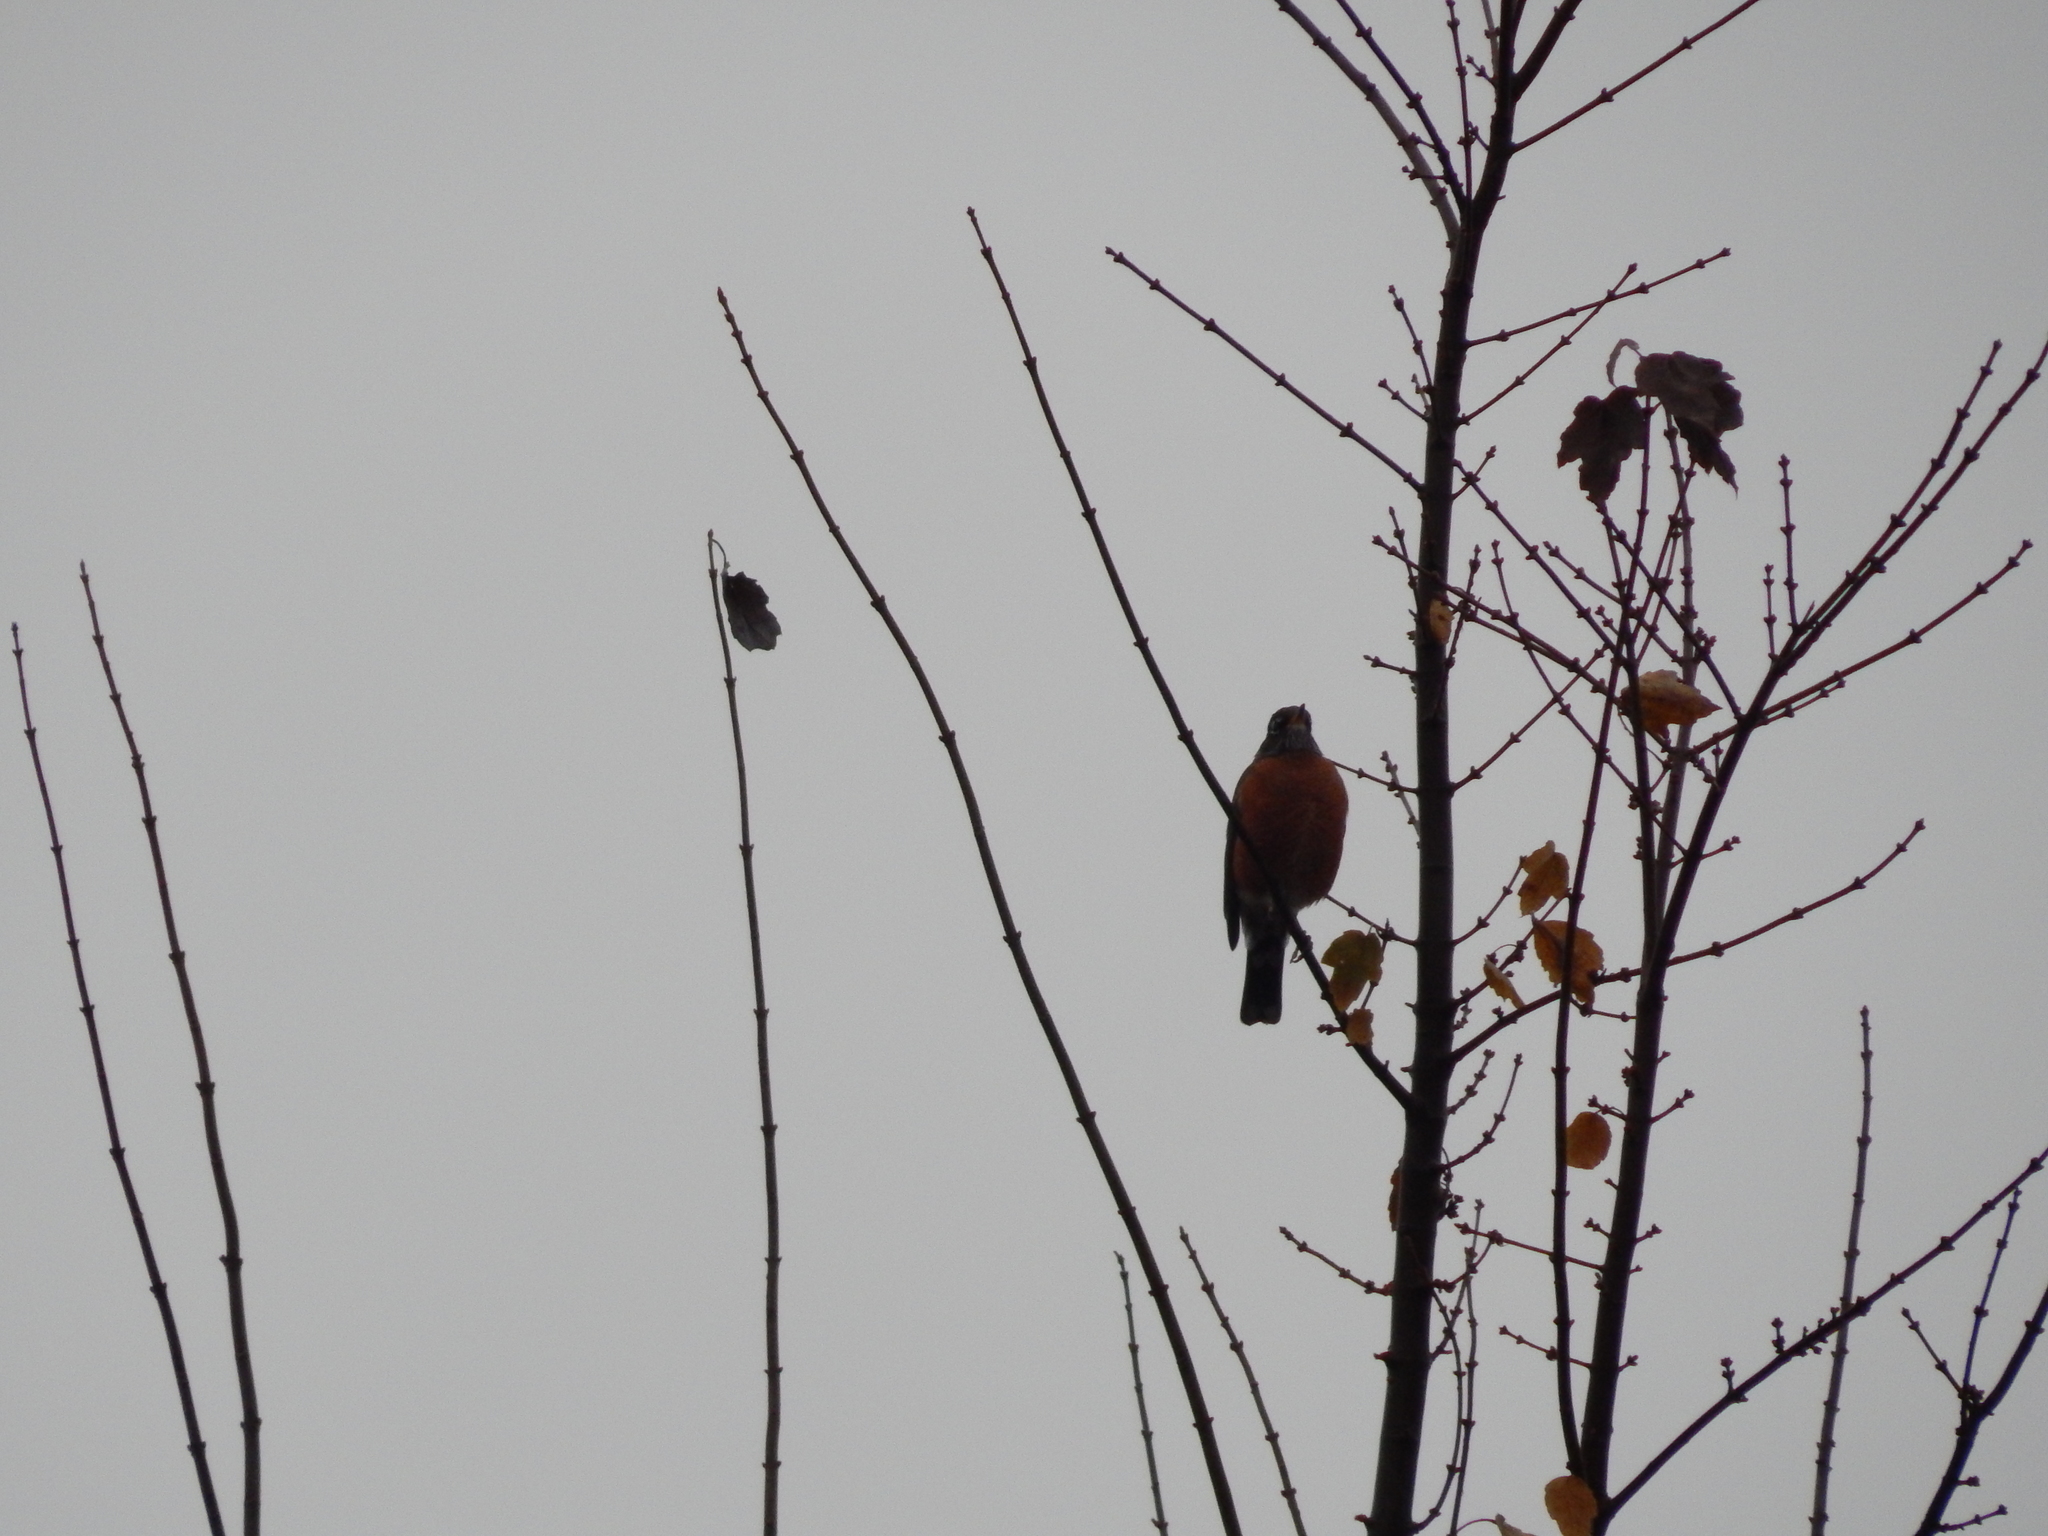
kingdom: Animalia
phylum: Chordata
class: Aves
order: Passeriformes
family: Turdidae
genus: Turdus
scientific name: Turdus migratorius
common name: American robin
